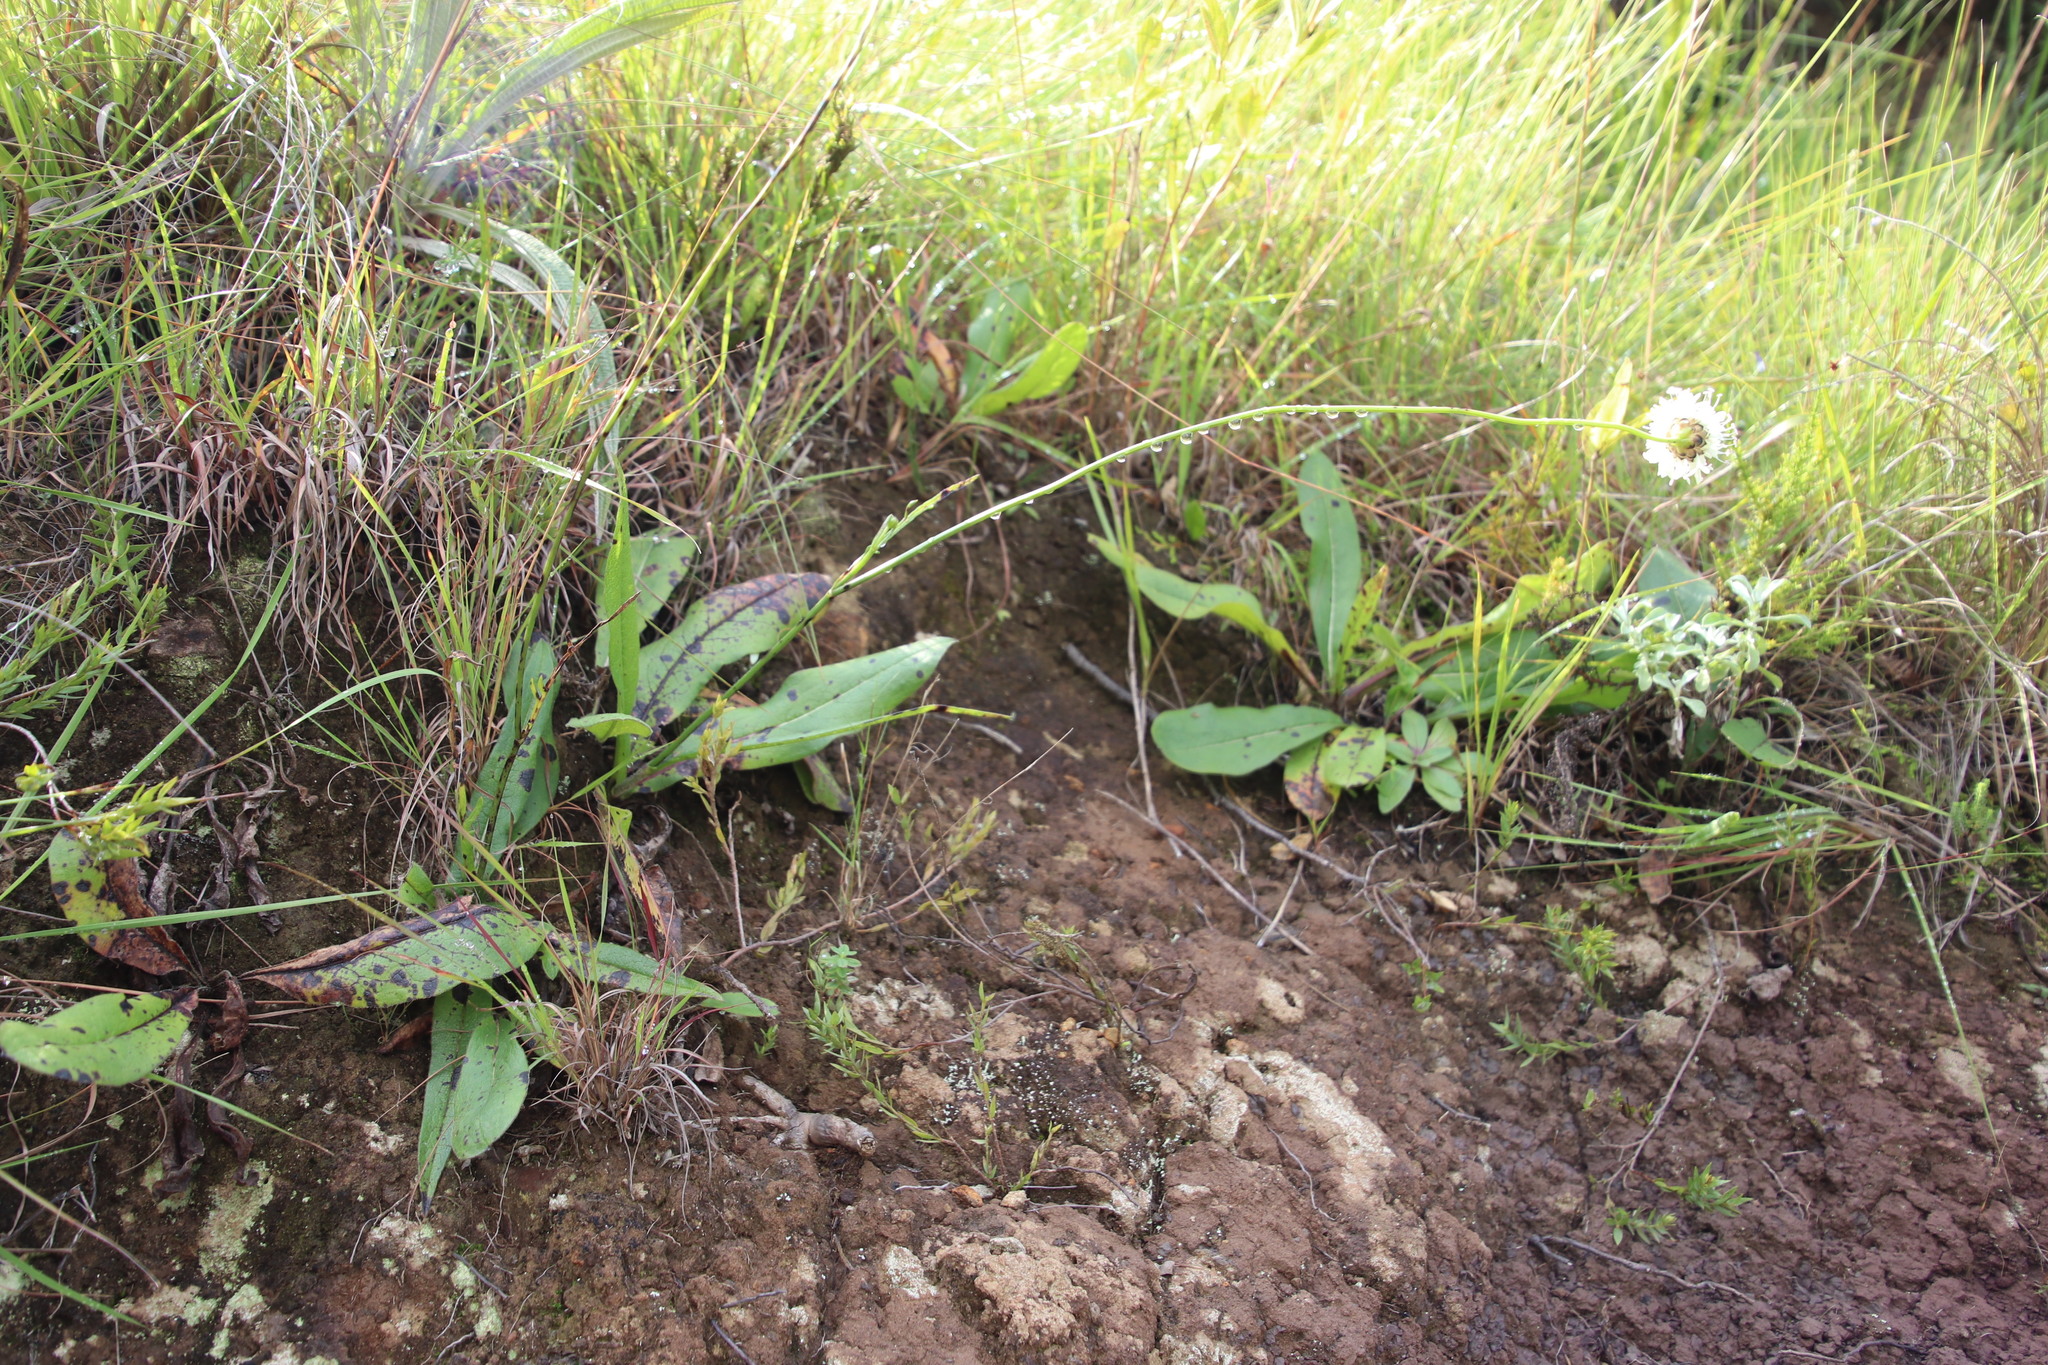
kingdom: Plantae
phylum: Tracheophyta
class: Magnoliopsida
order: Dipsacales
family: Caprifoliaceae
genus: Cephalaria
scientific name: Cephalaria oblongifolia
